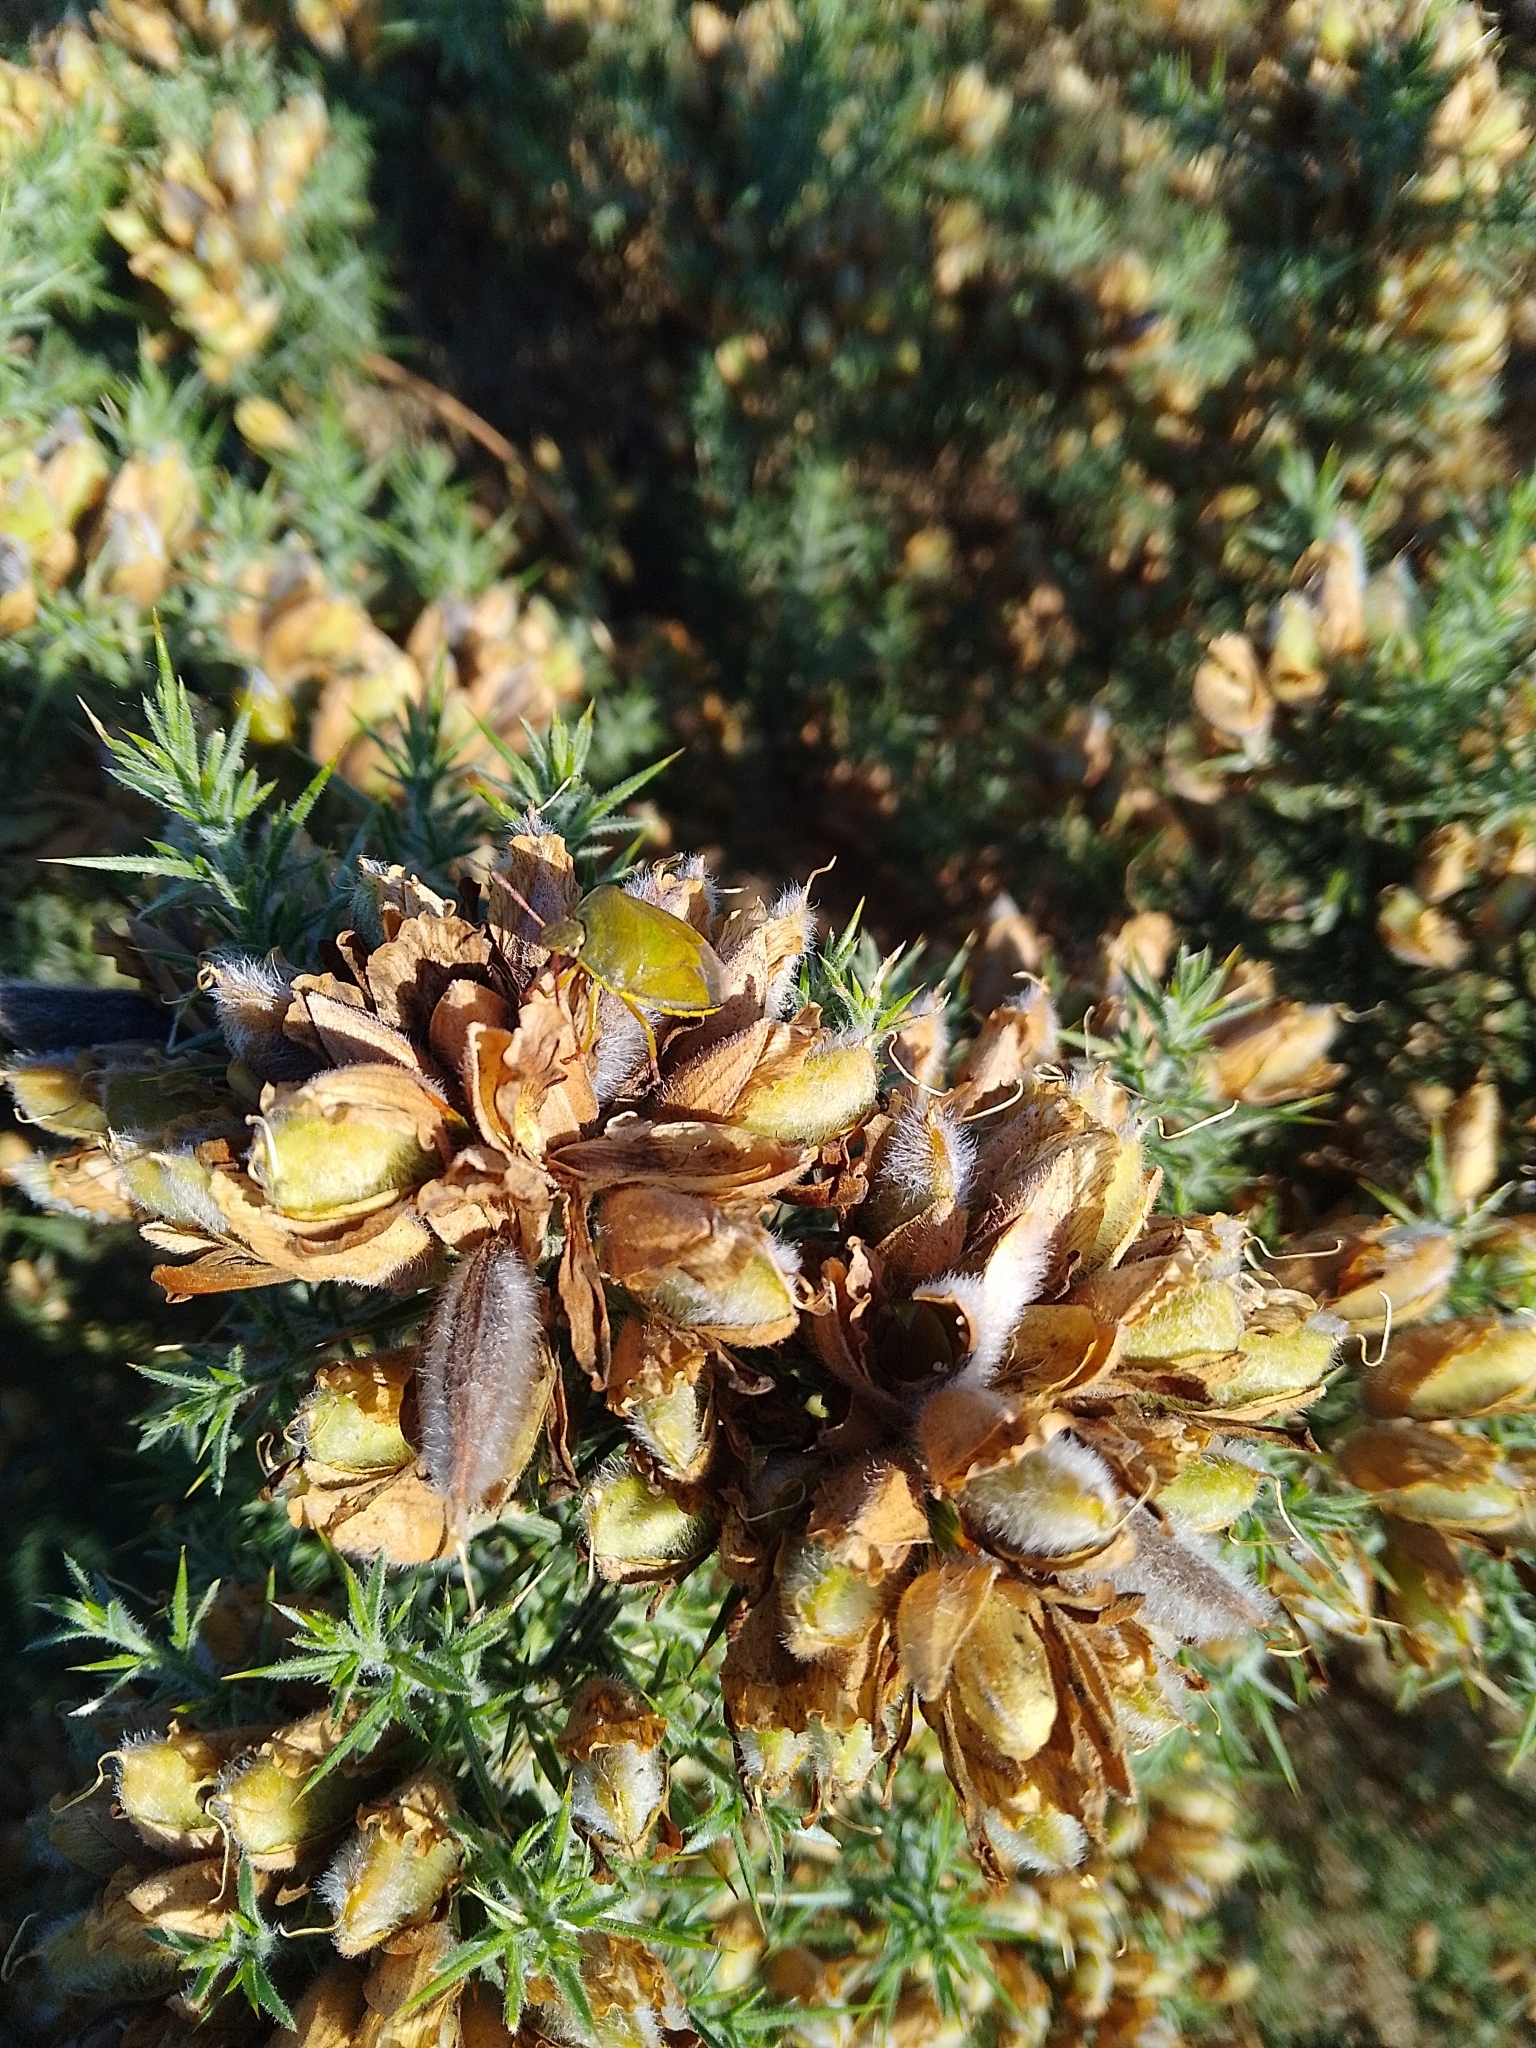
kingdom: Animalia
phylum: Arthropoda
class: Insecta
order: Hemiptera
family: Pentatomidae
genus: Piezodorus
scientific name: Piezodorus lituratus
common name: Stink bug
